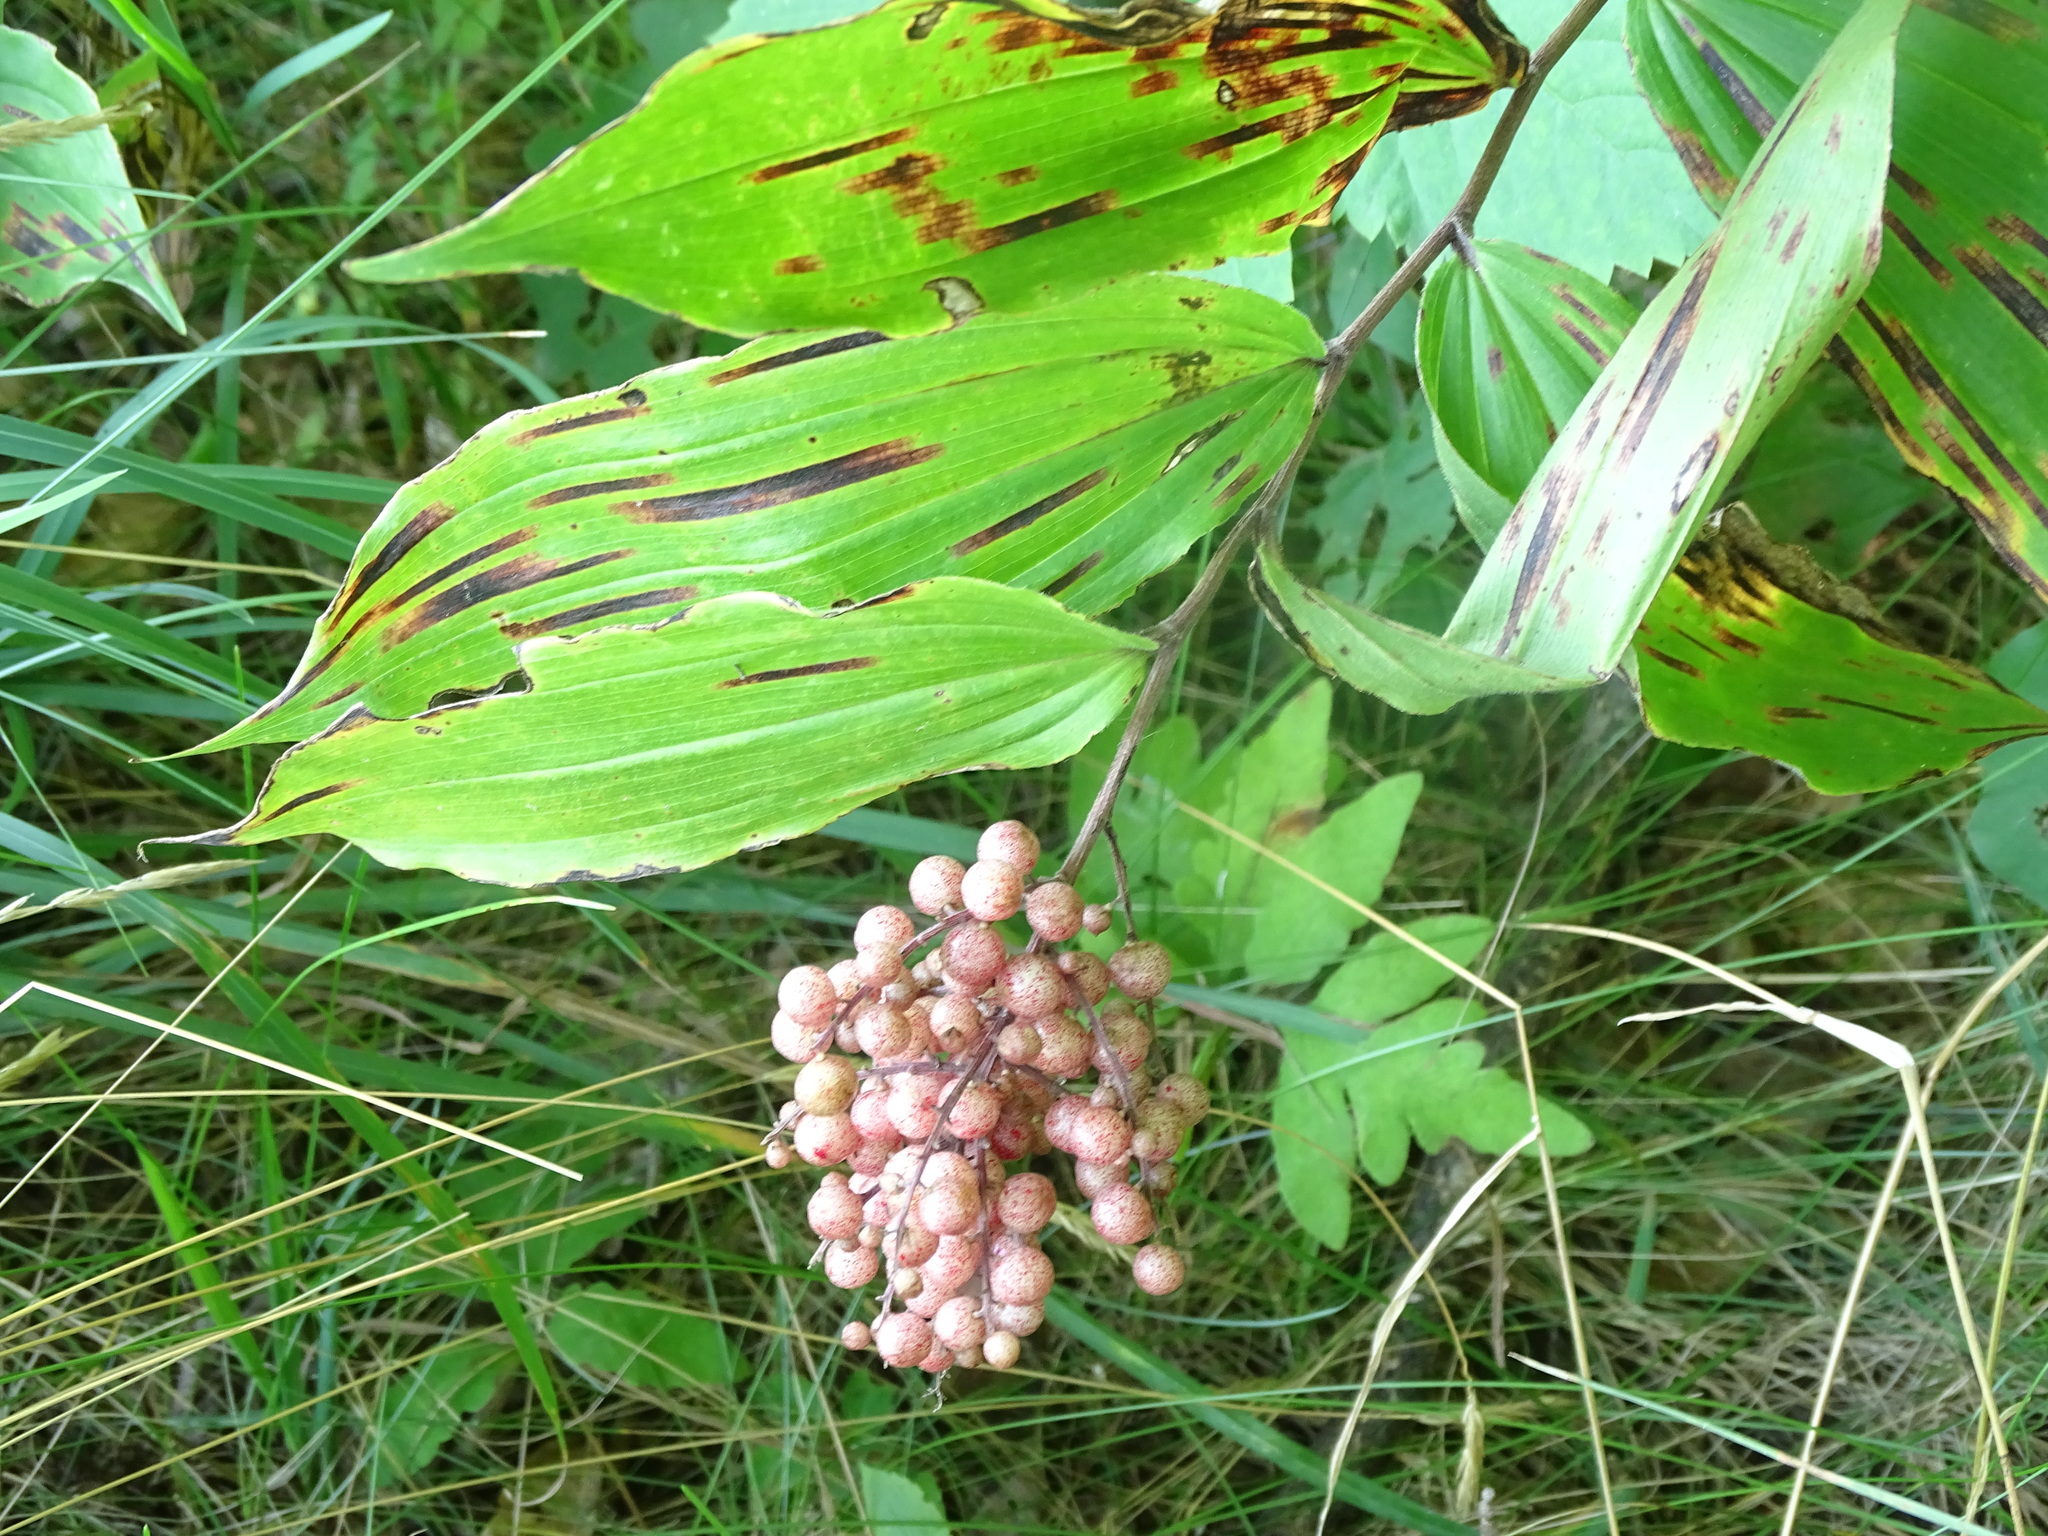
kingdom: Plantae
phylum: Tracheophyta
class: Liliopsida
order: Asparagales
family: Asparagaceae
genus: Maianthemum
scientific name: Maianthemum racemosum
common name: False spikenard
